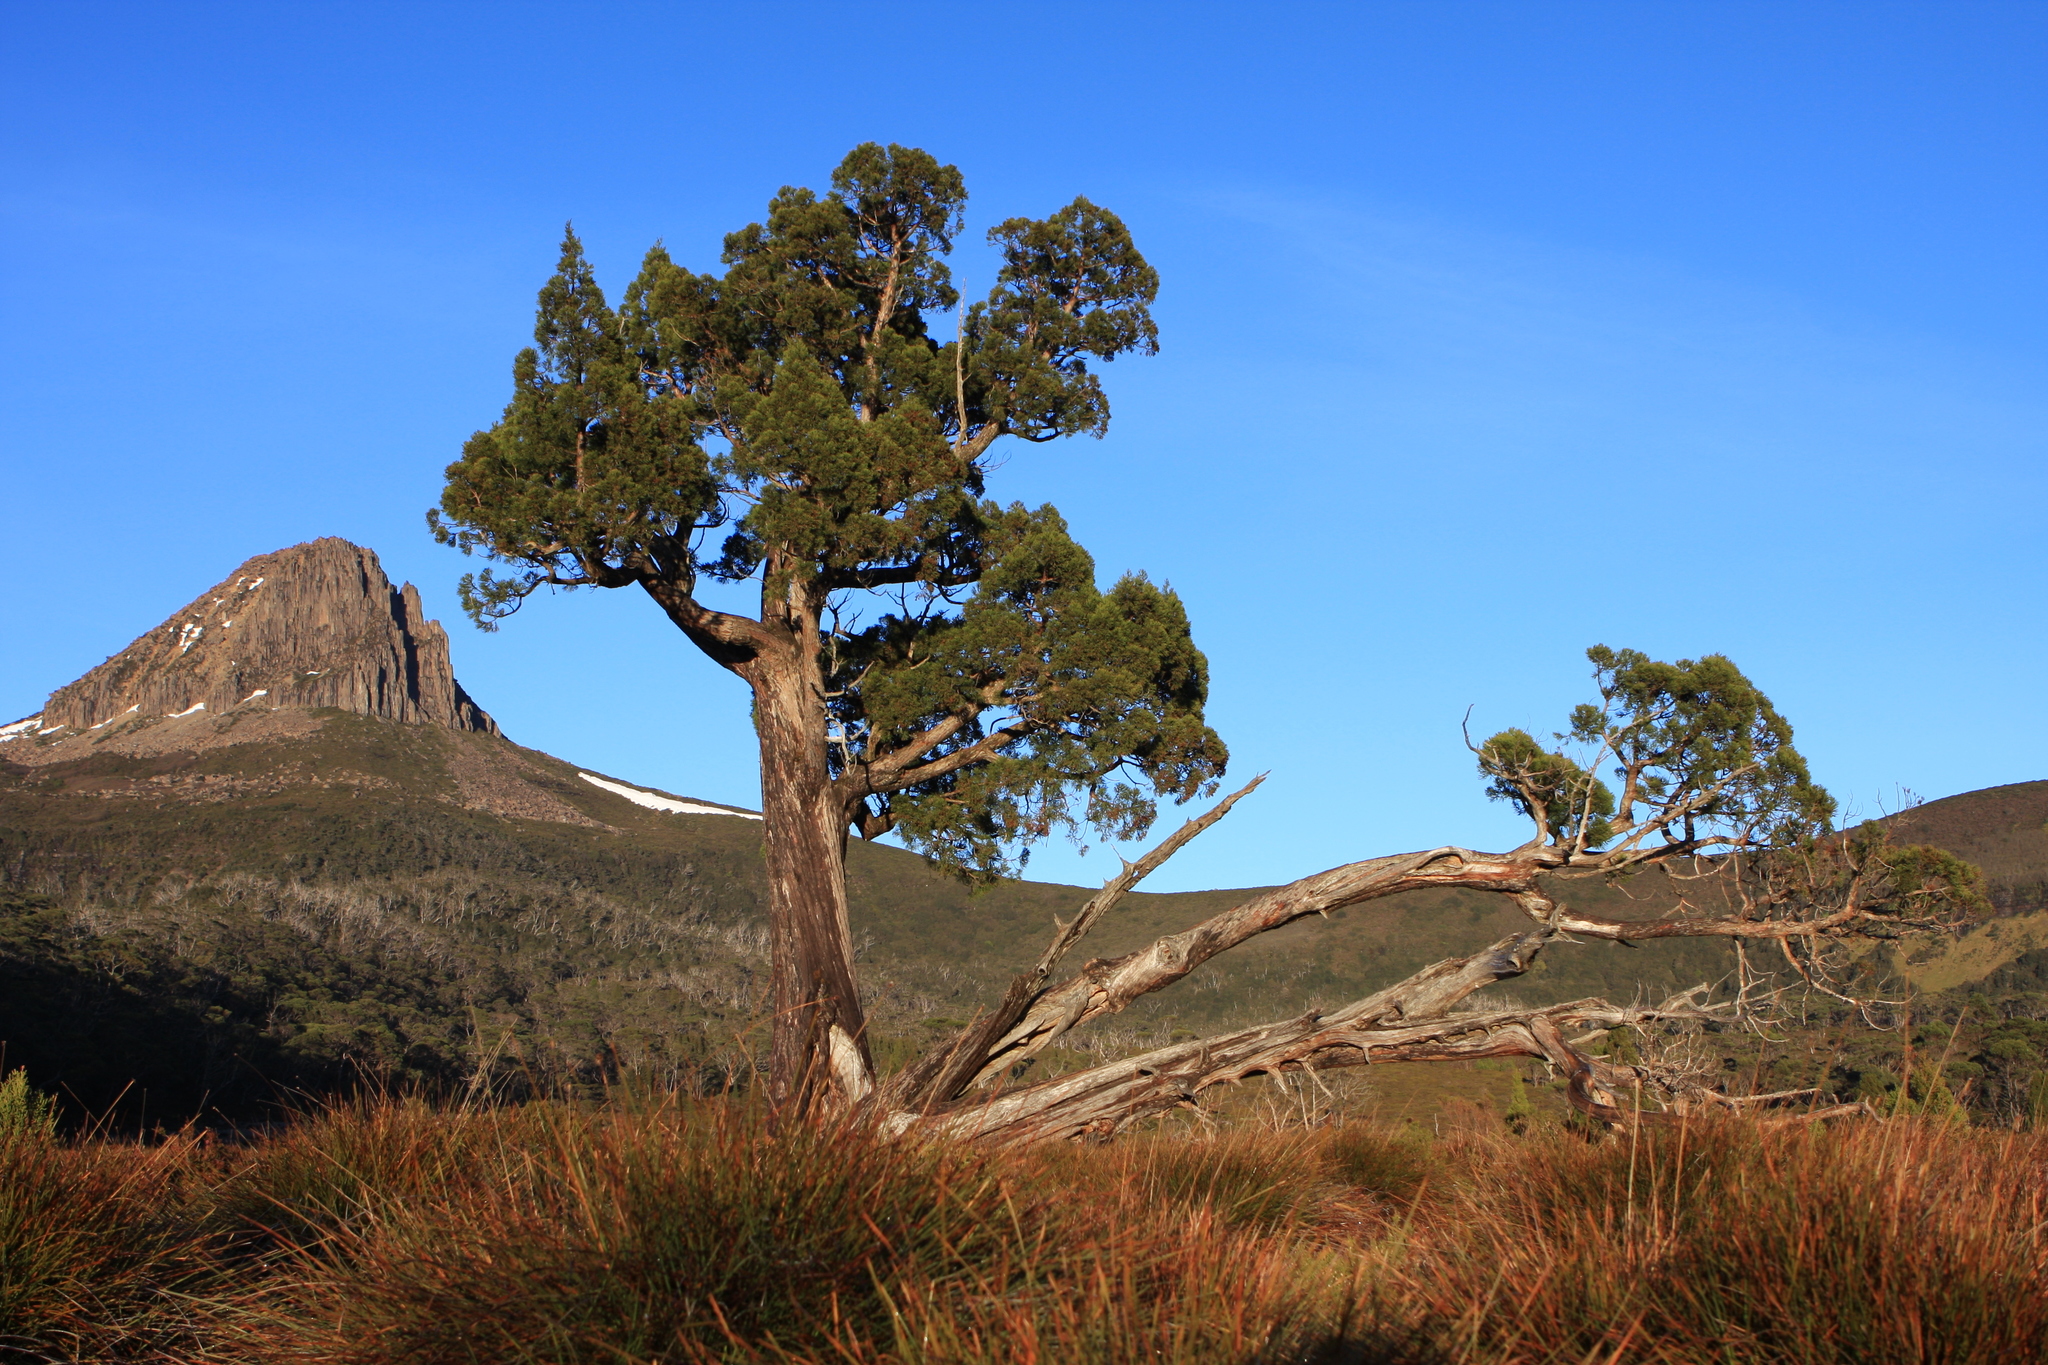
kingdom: Plantae
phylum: Tracheophyta
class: Pinopsida
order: Pinales
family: Cupressaceae
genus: Athrotaxis
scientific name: Athrotaxis cupressoides
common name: Tasmanian pencil pine
